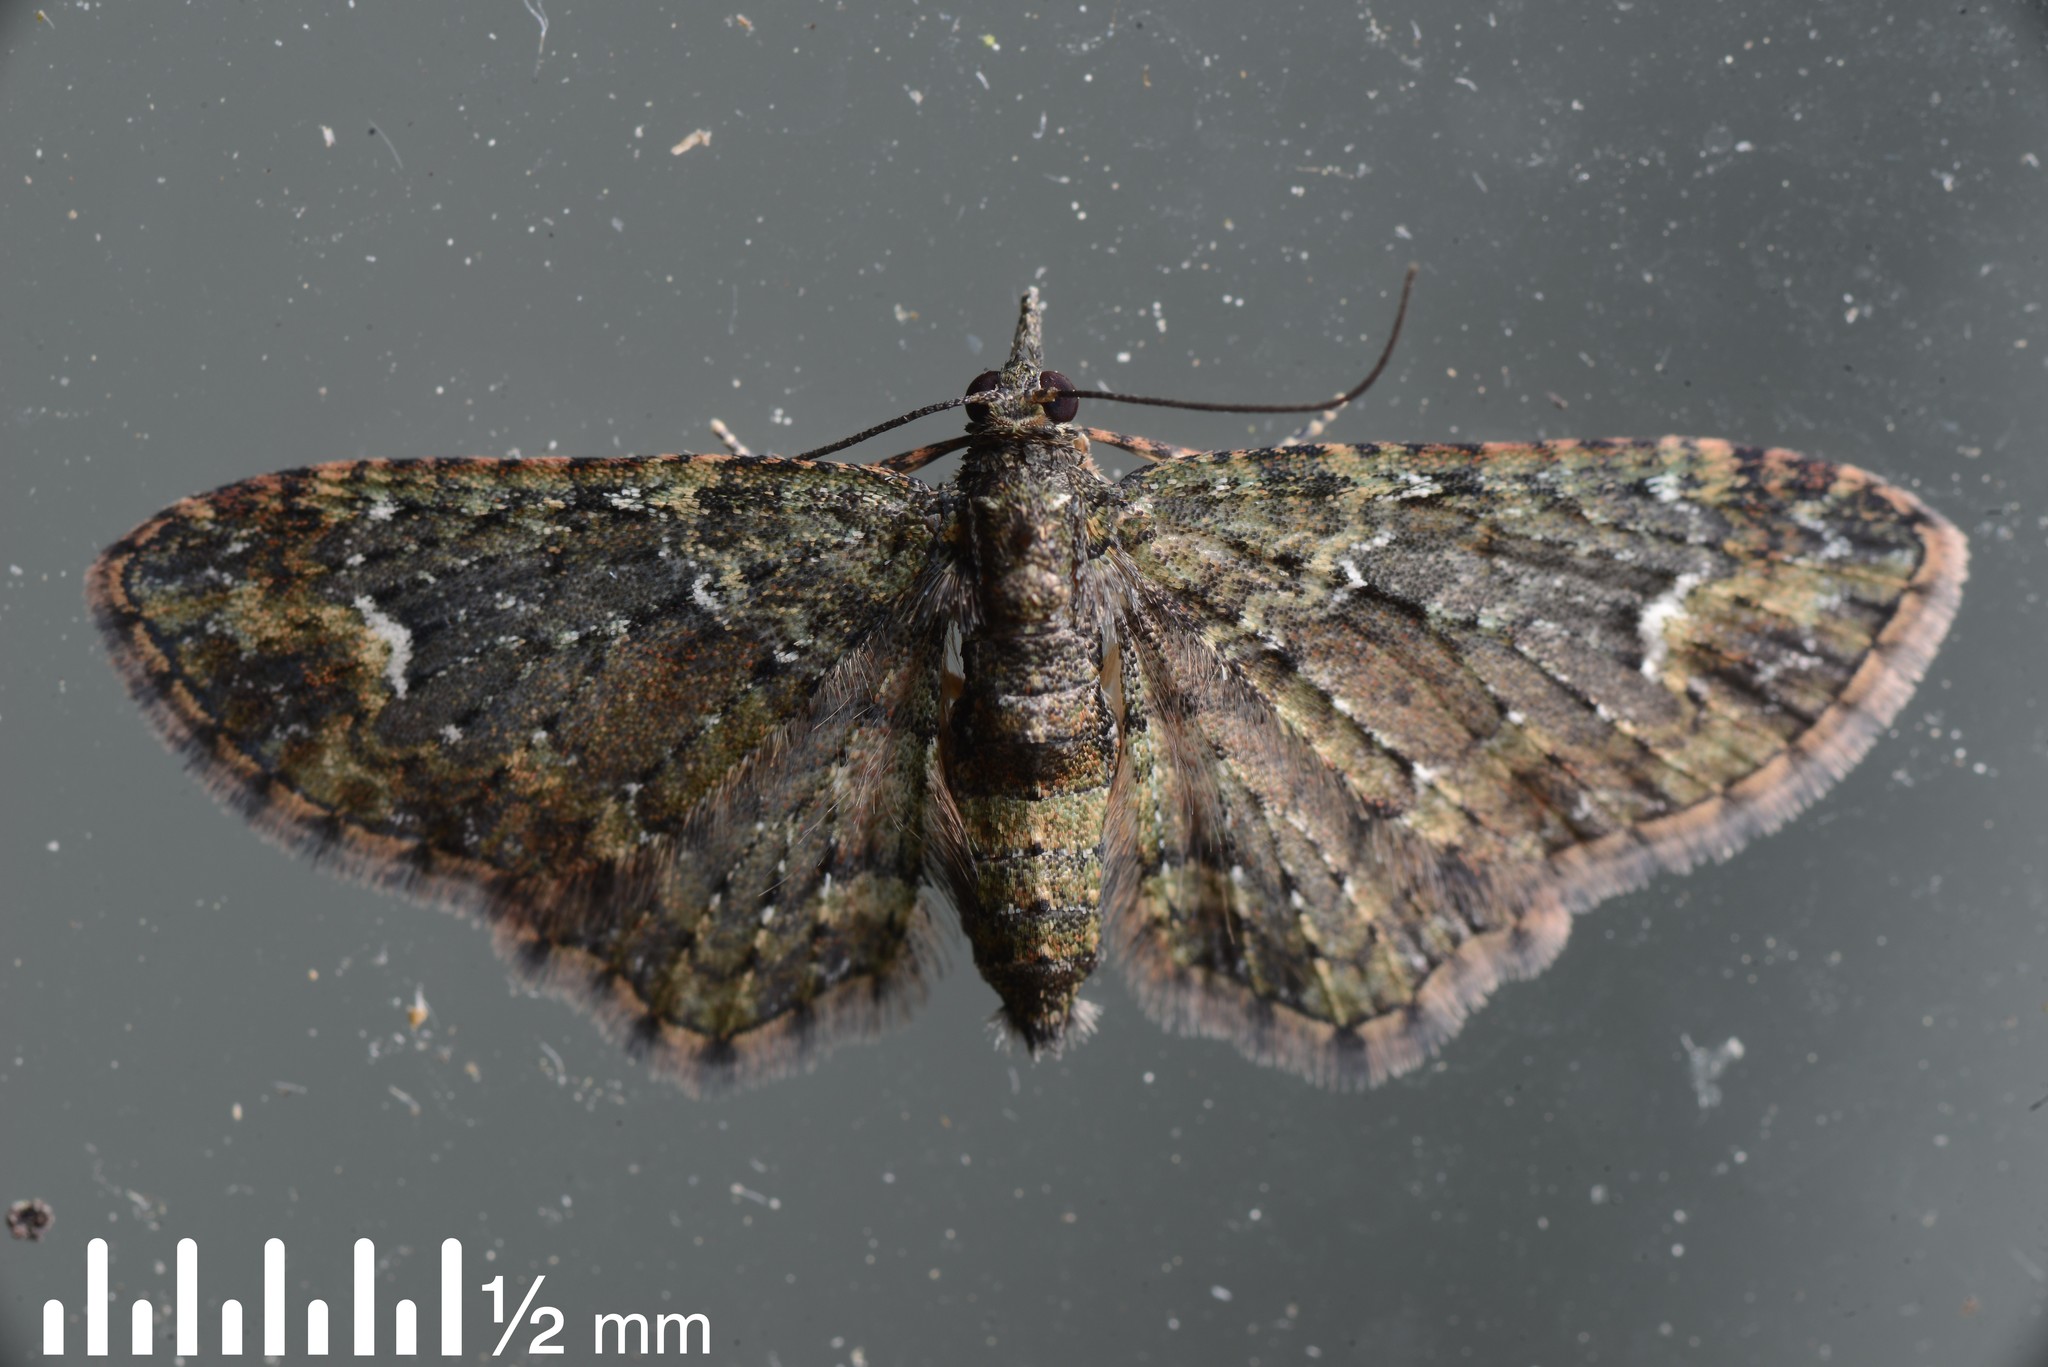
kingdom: Animalia
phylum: Arthropoda
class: Insecta
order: Lepidoptera
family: Geometridae
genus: Pasiphilodes
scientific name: Pasiphilodes testulata
